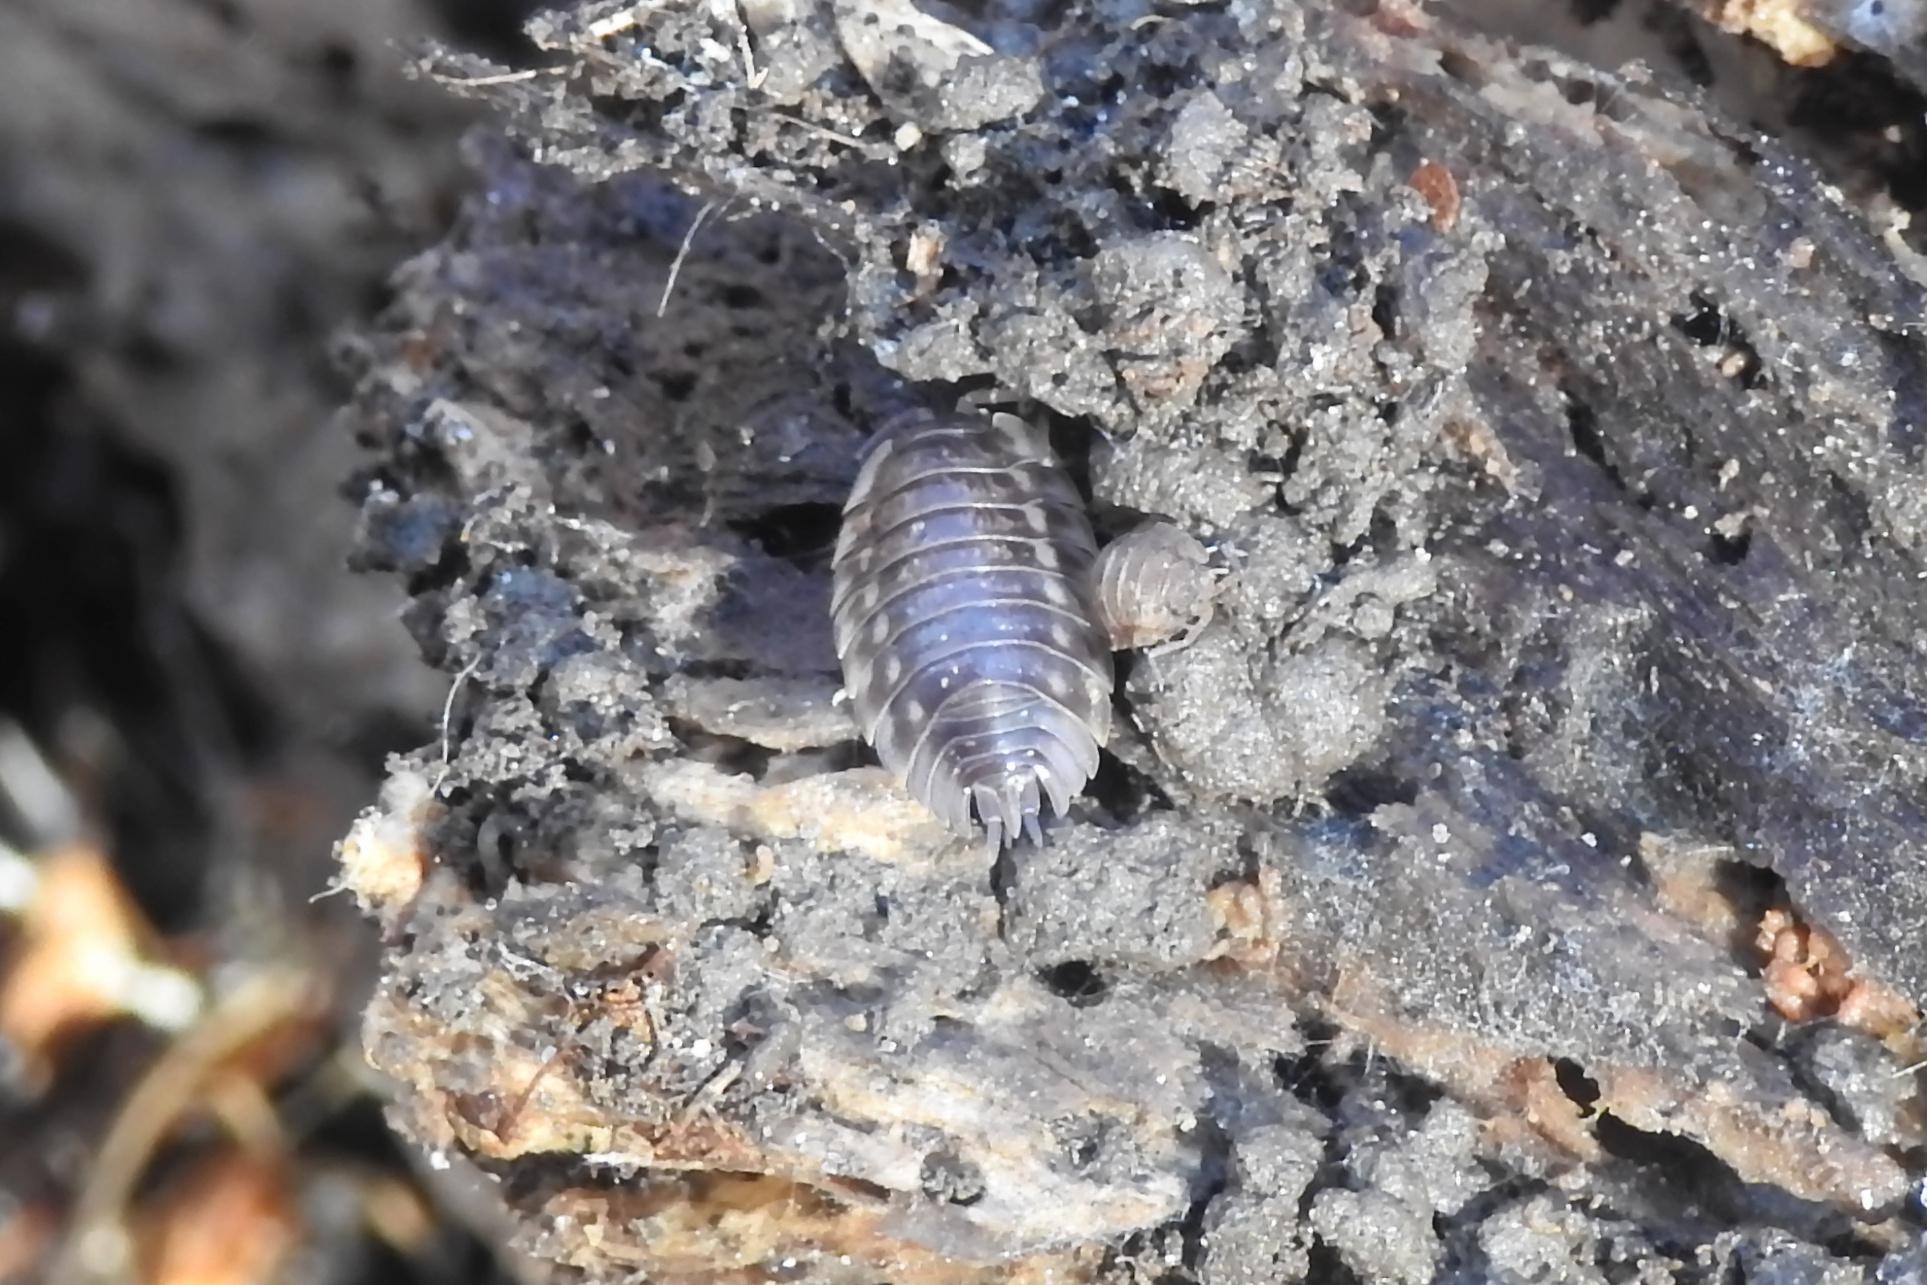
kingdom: Animalia
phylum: Arthropoda
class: Malacostraca
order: Isopoda
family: Oniscidae
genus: Oniscus
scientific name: Oniscus asellus
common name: Common shiny woodlouse
